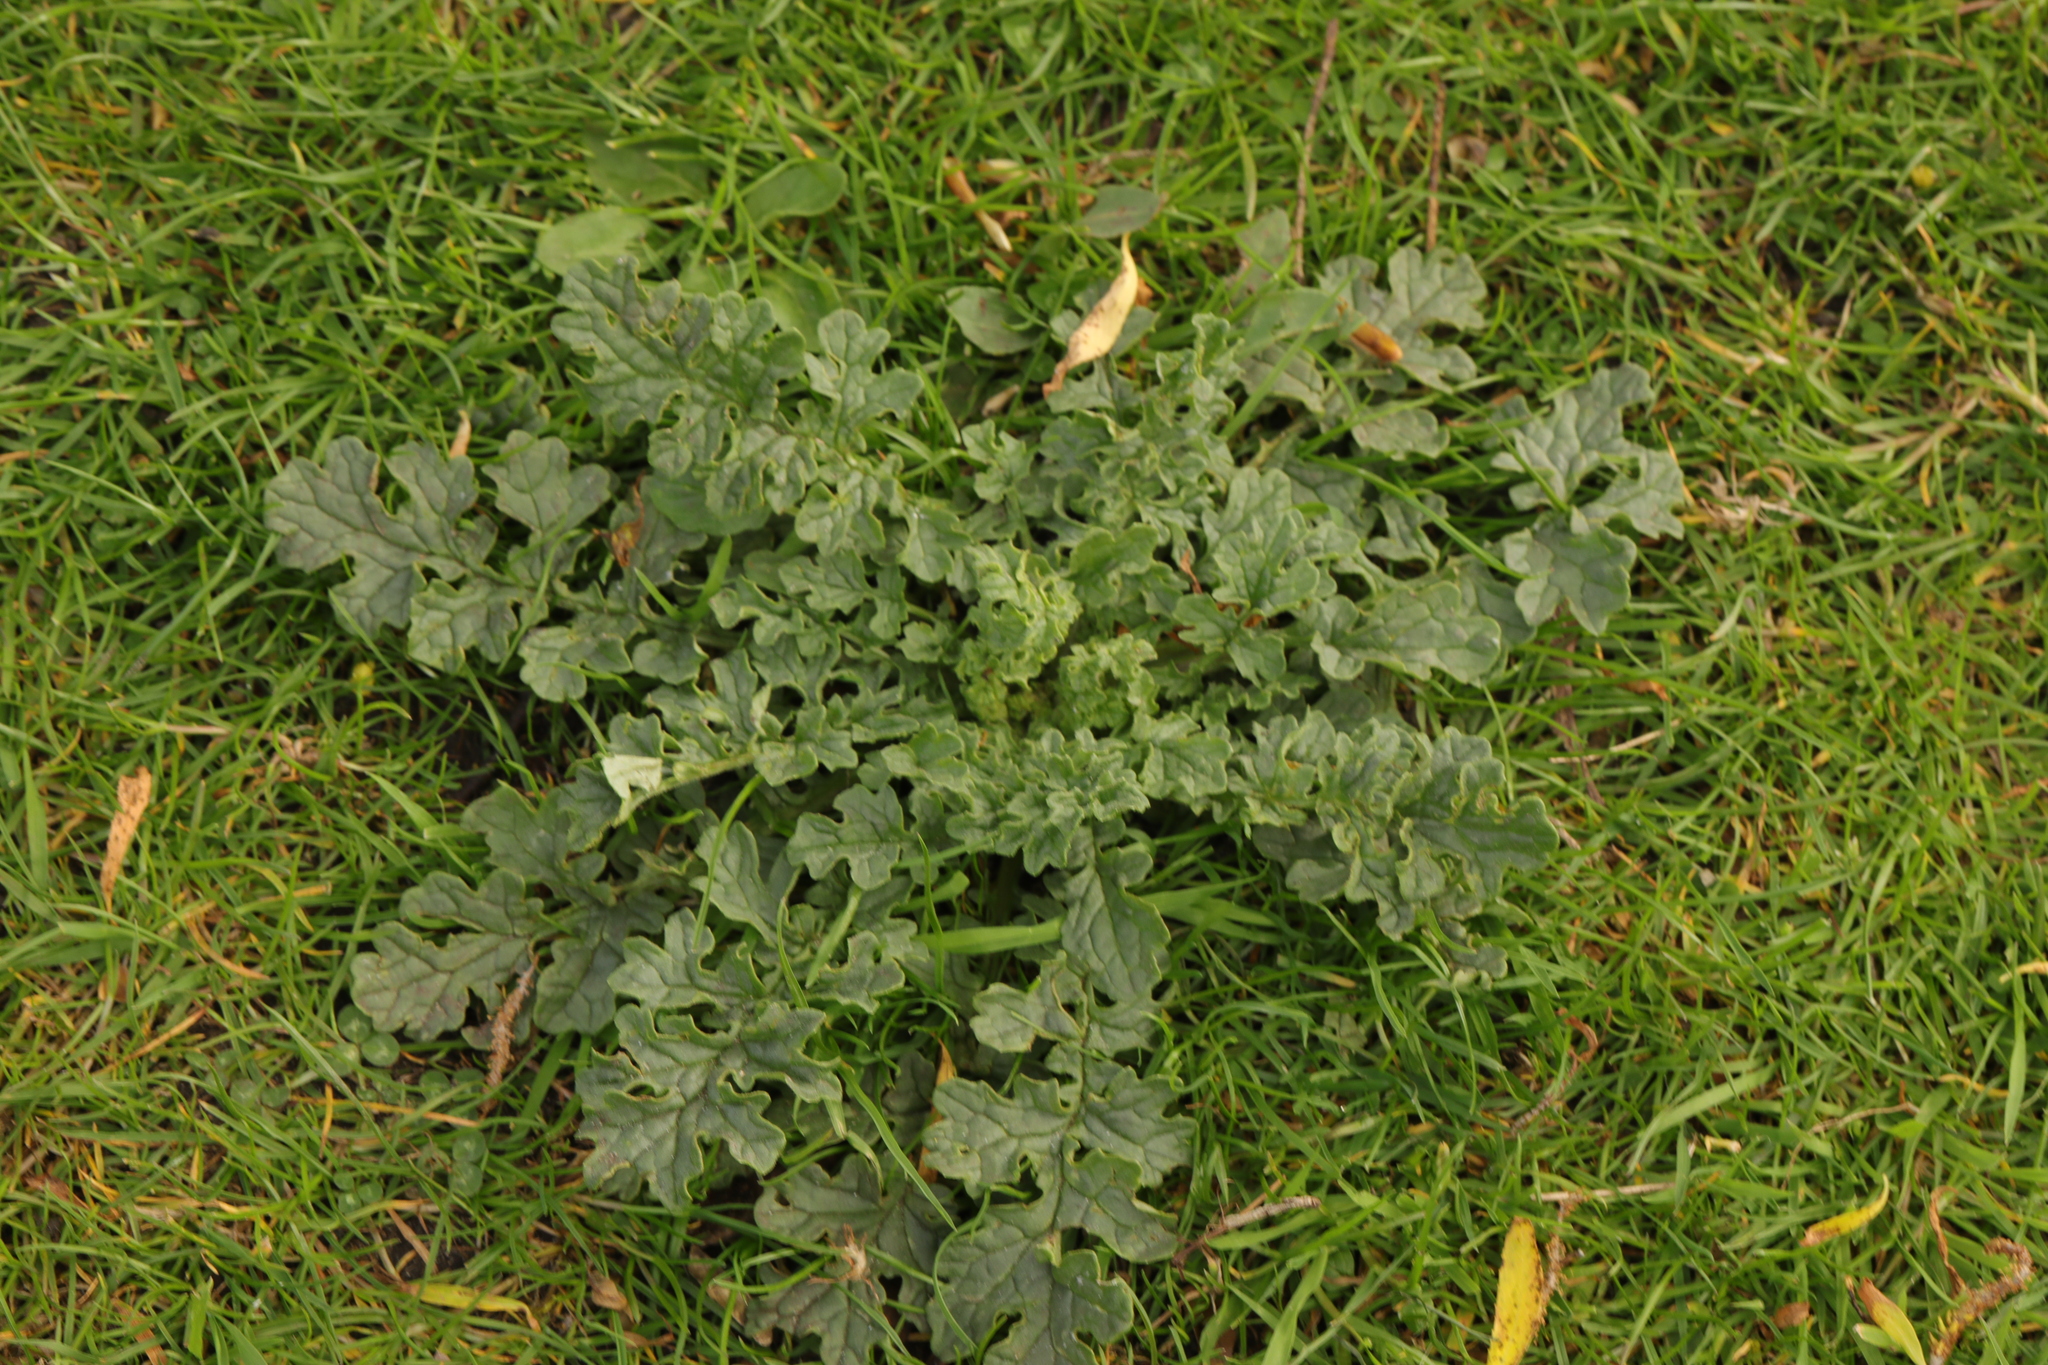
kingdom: Plantae
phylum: Tracheophyta
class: Magnoliopsida
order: Asterales
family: Asteraceae
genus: Jacobaea
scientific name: Jacobaea vulgaris
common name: Stinking willie
